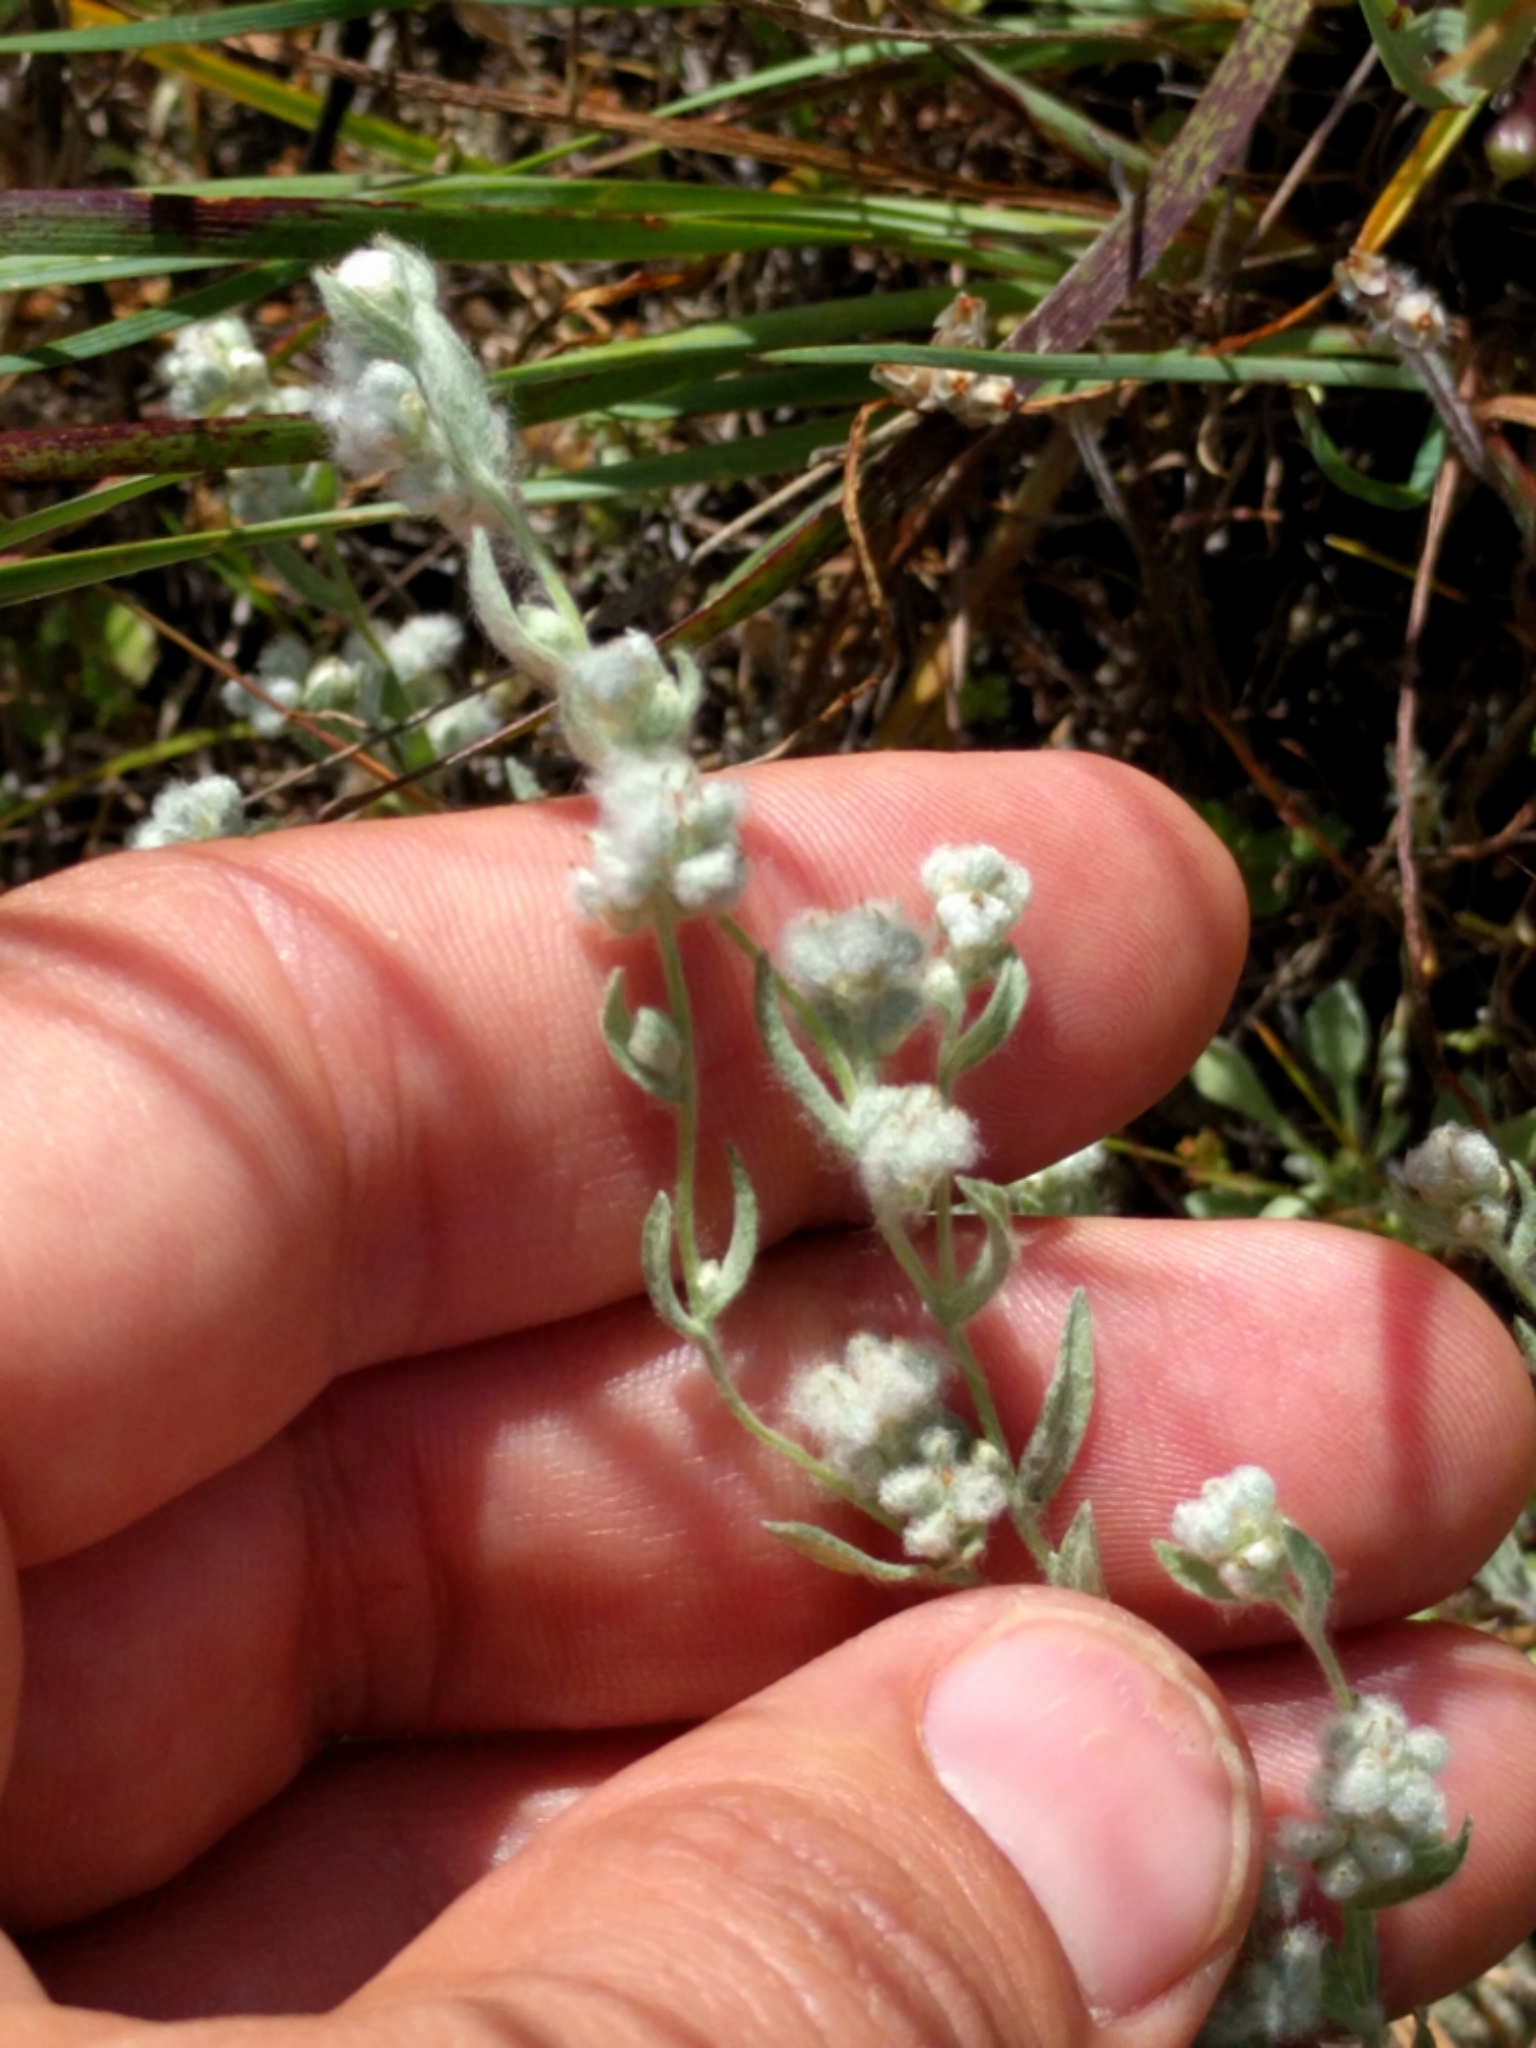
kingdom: Plantae
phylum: Tracheophyta
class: Magnoliopsida
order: Asterales
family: Asteraceae
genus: Bombycilaena
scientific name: Bombycilaena californica
